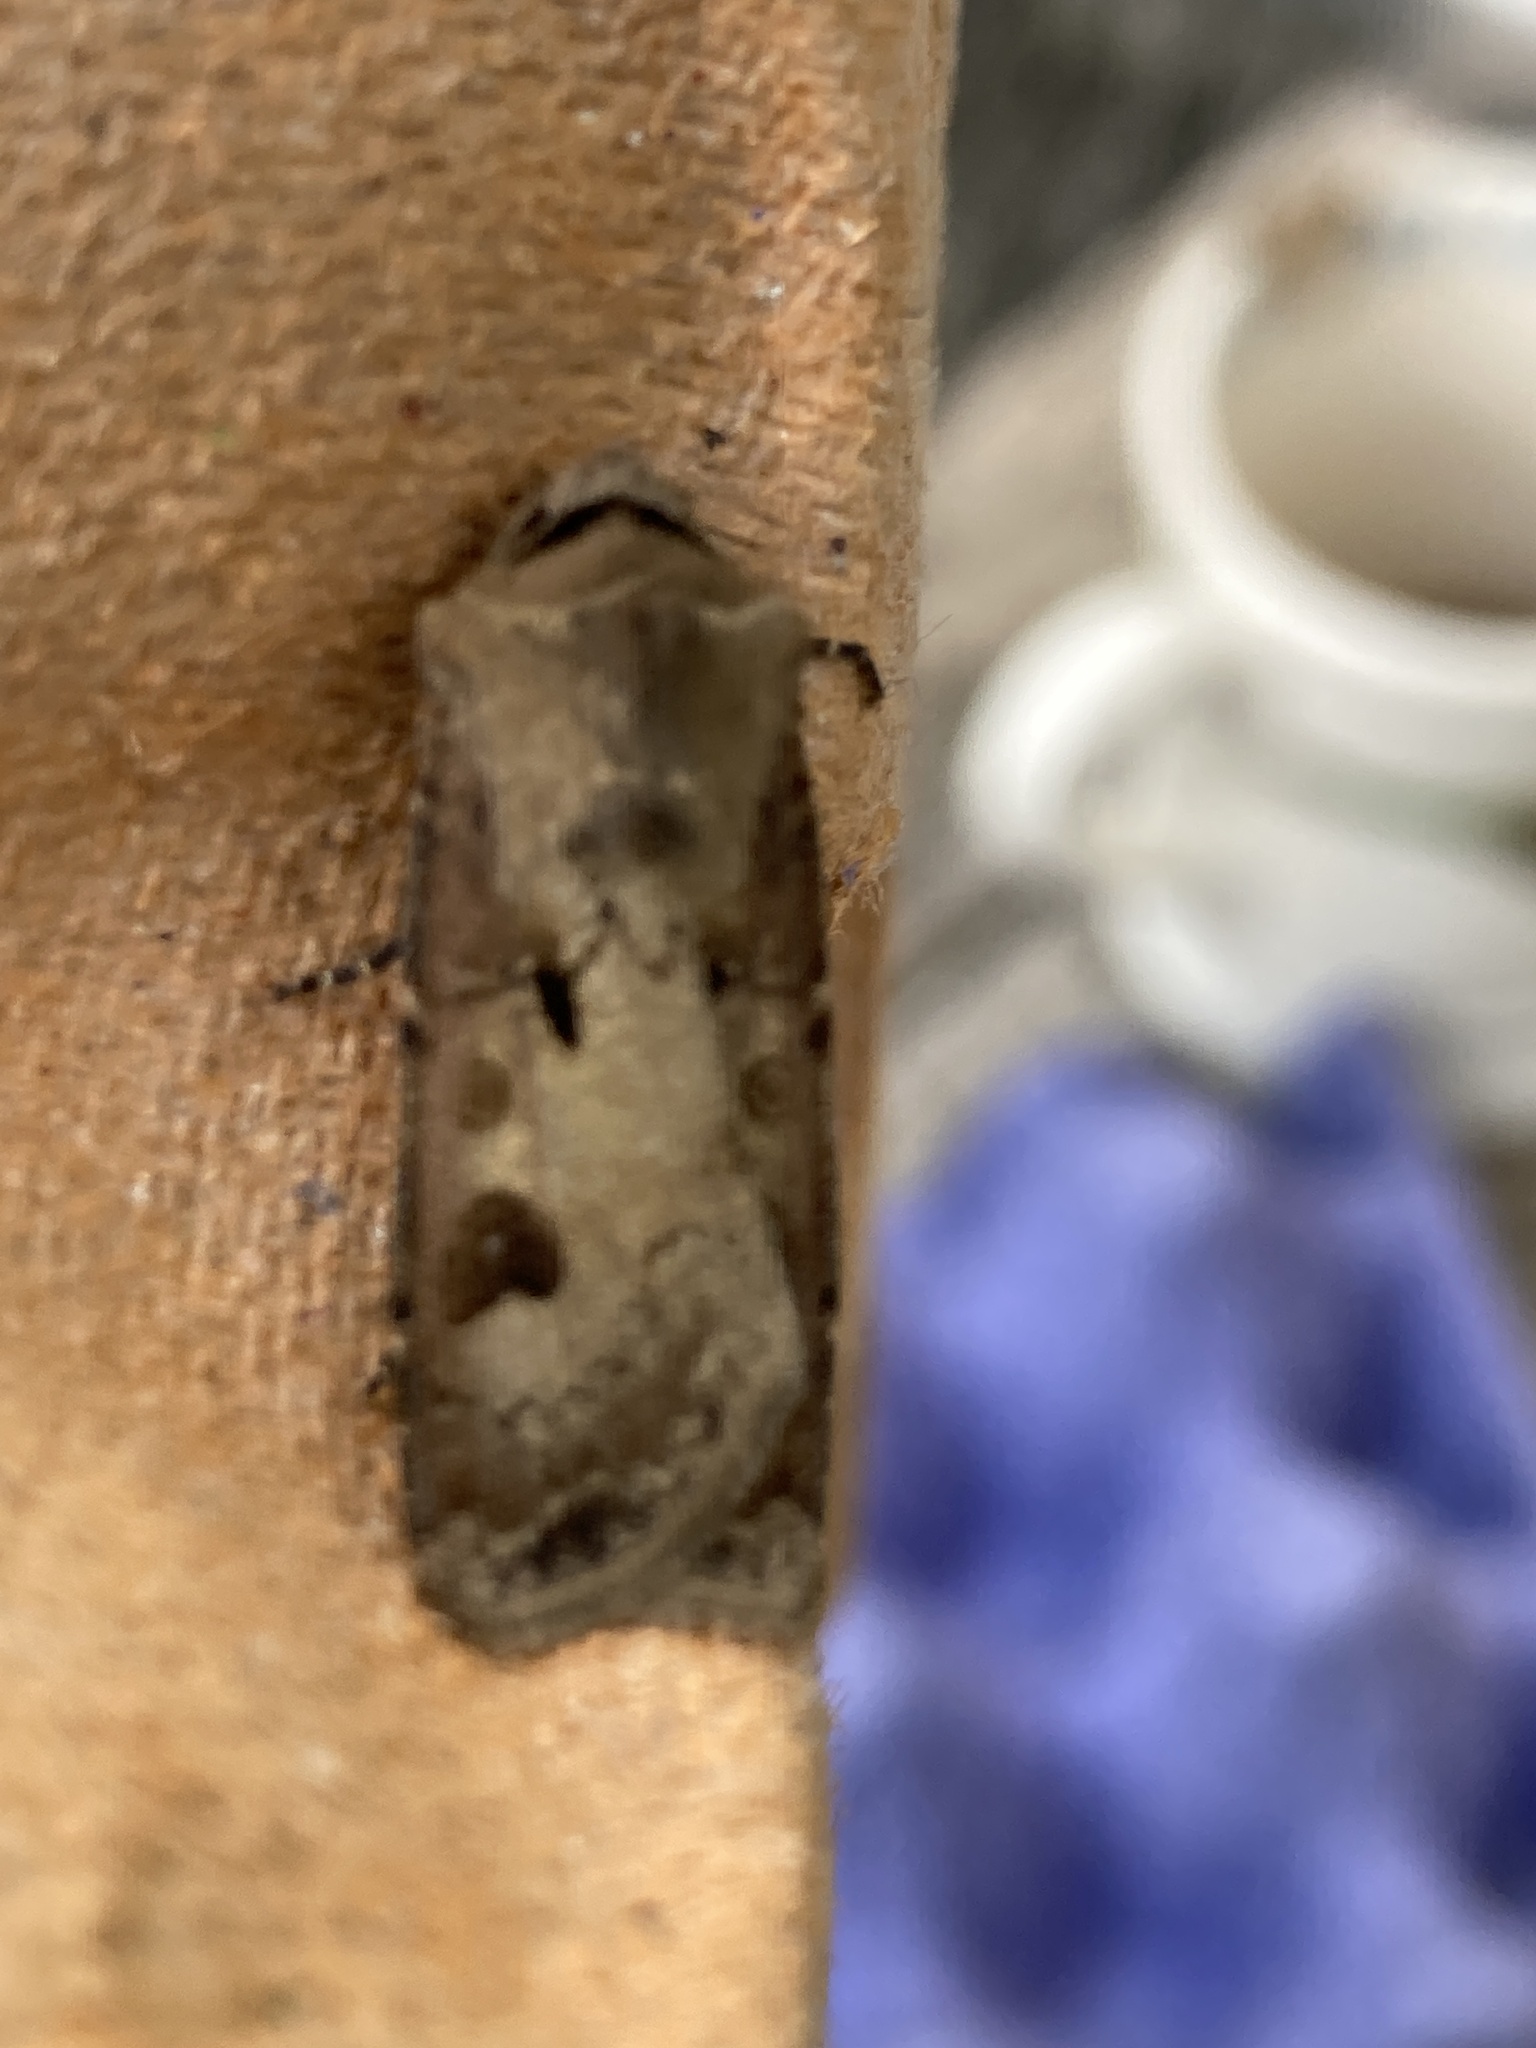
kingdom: Animalia
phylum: Arthropoda
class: Insecta
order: Lepidoptera
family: Noctuidae
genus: Agrotis
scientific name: Agrotis exclamationis
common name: Heart and dart
